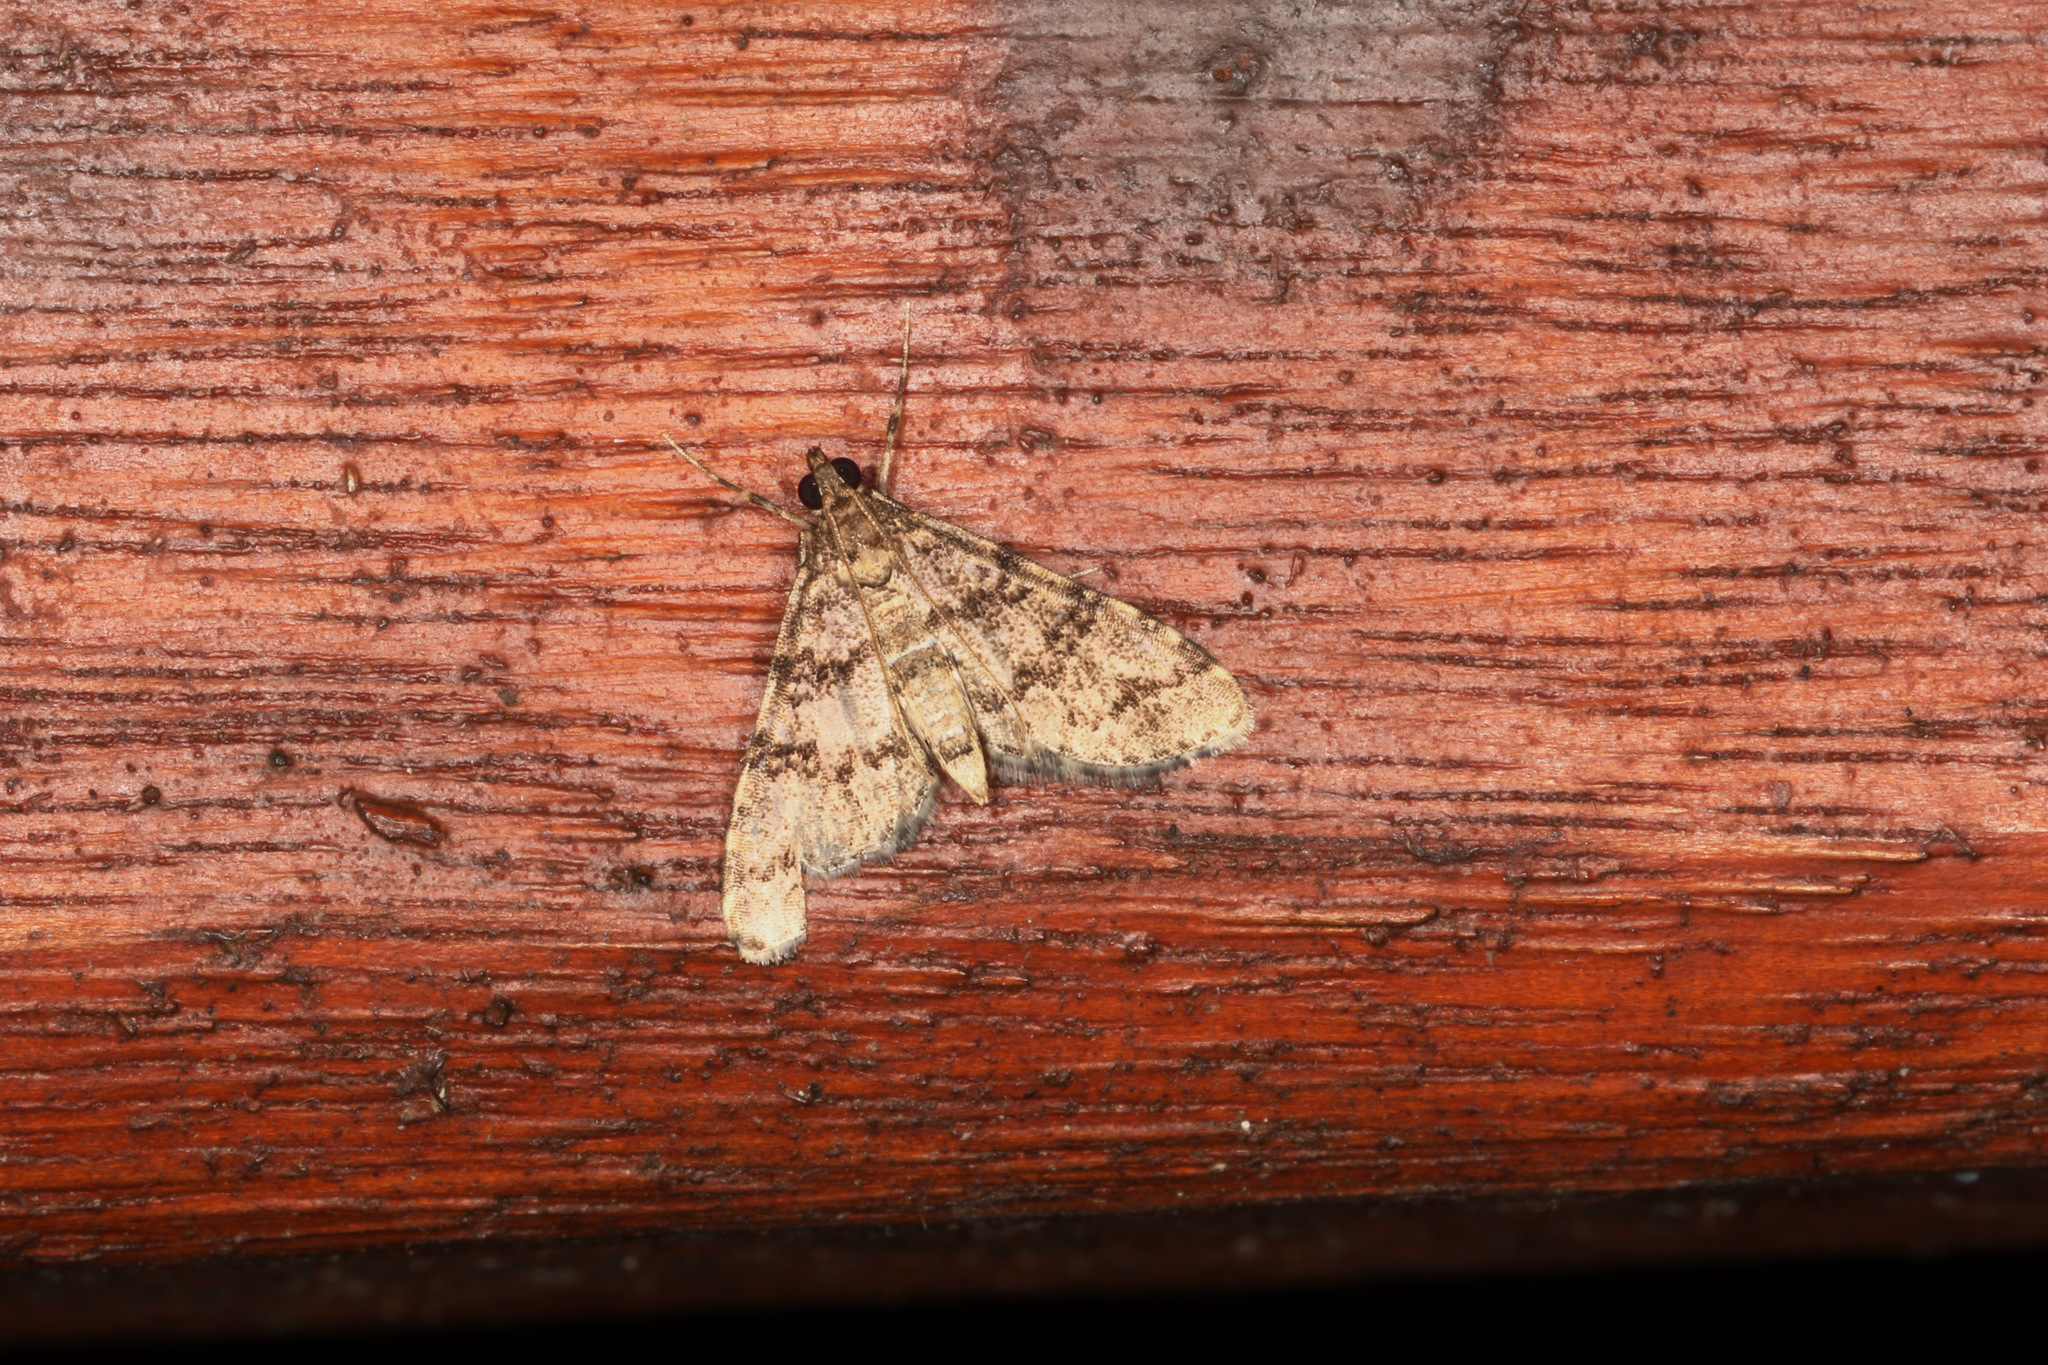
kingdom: Animalia
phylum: Arthropoda
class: Insecta
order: Lepidoptera
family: Crambidae
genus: Metasia
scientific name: Metasia spilocrossa
